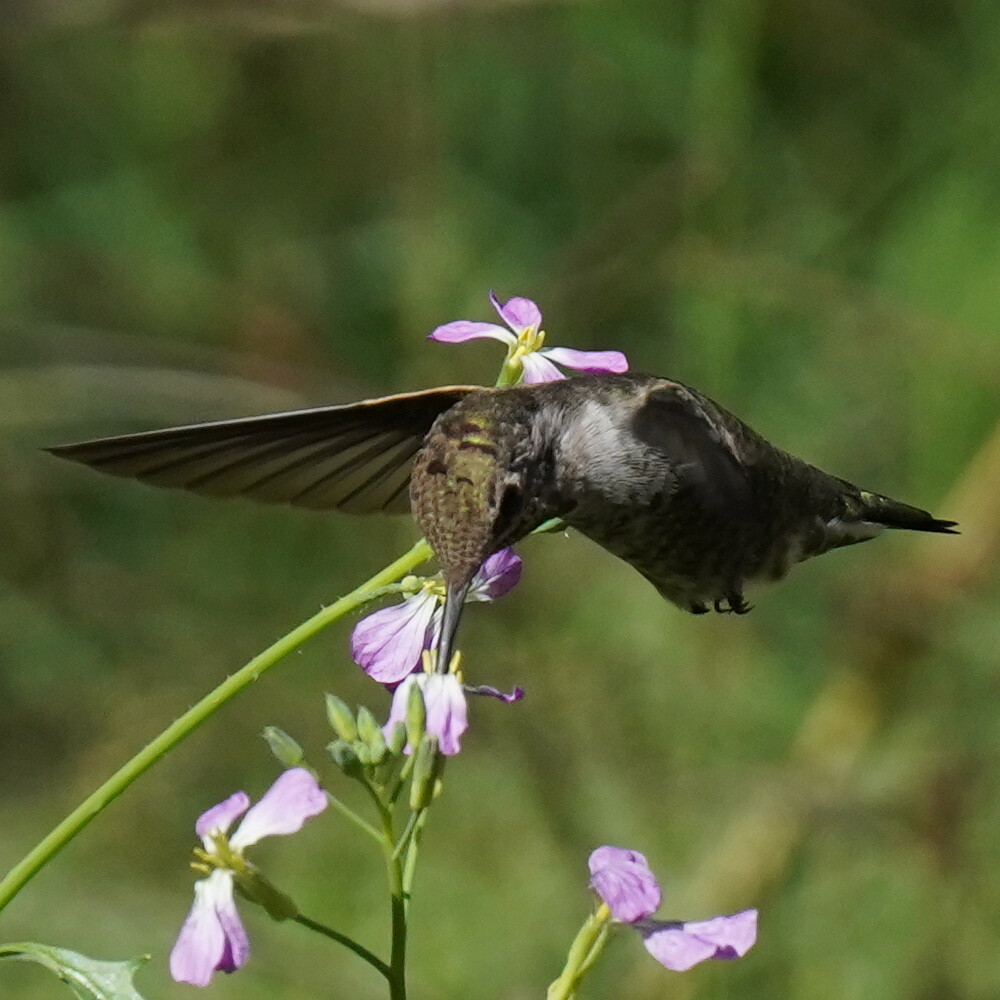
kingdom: Animalia
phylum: Chordata
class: Aves
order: Apodiformes
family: Trochilidae
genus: Calypte
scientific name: Calypte anna
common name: Anna's hummingbird
